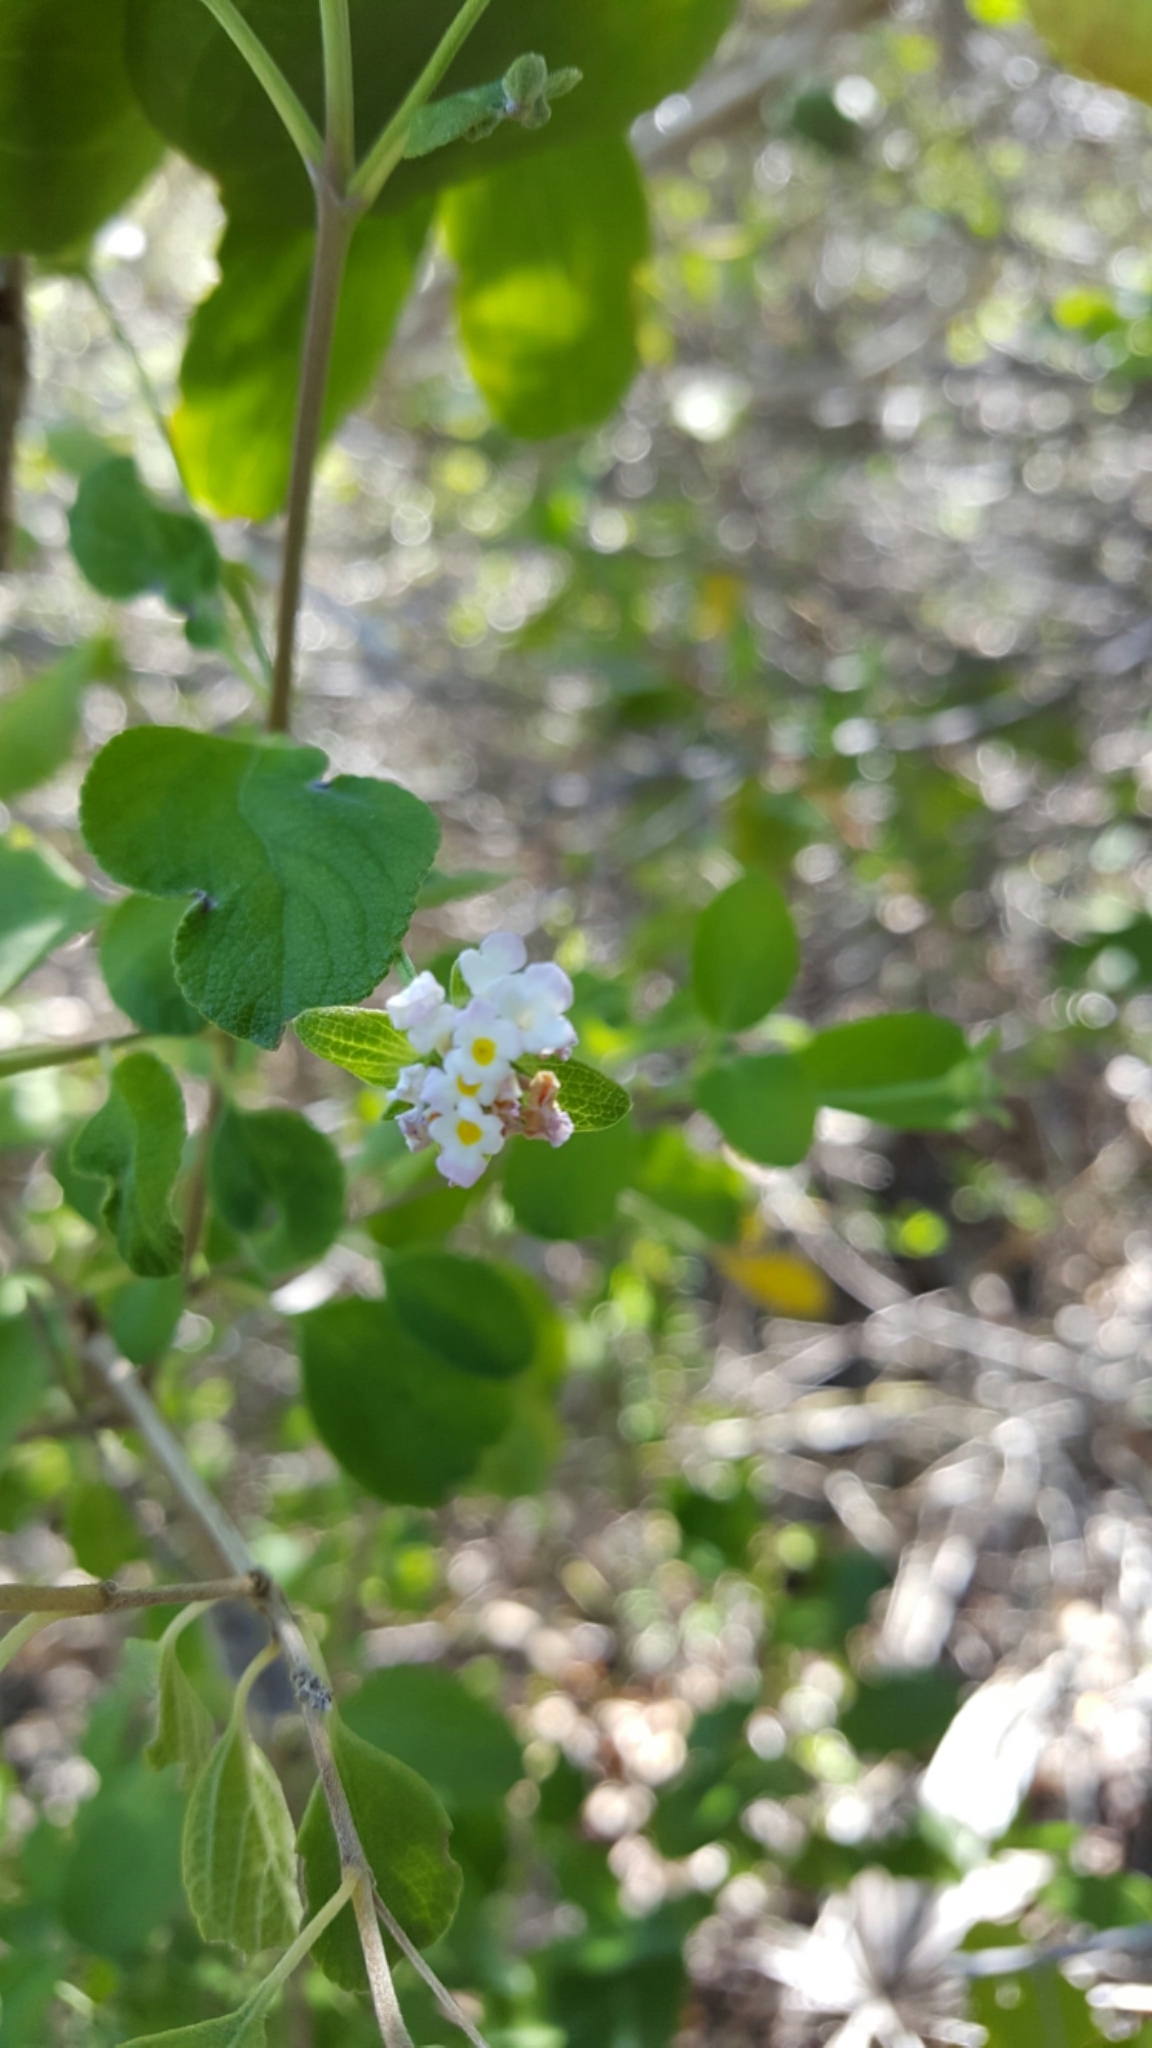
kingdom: Plantae
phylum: Tracheophyta
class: Magnoliopsida
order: Lamiales
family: Verbenaceae
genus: Lantana
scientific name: Lantana involucrata
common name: Black sage
